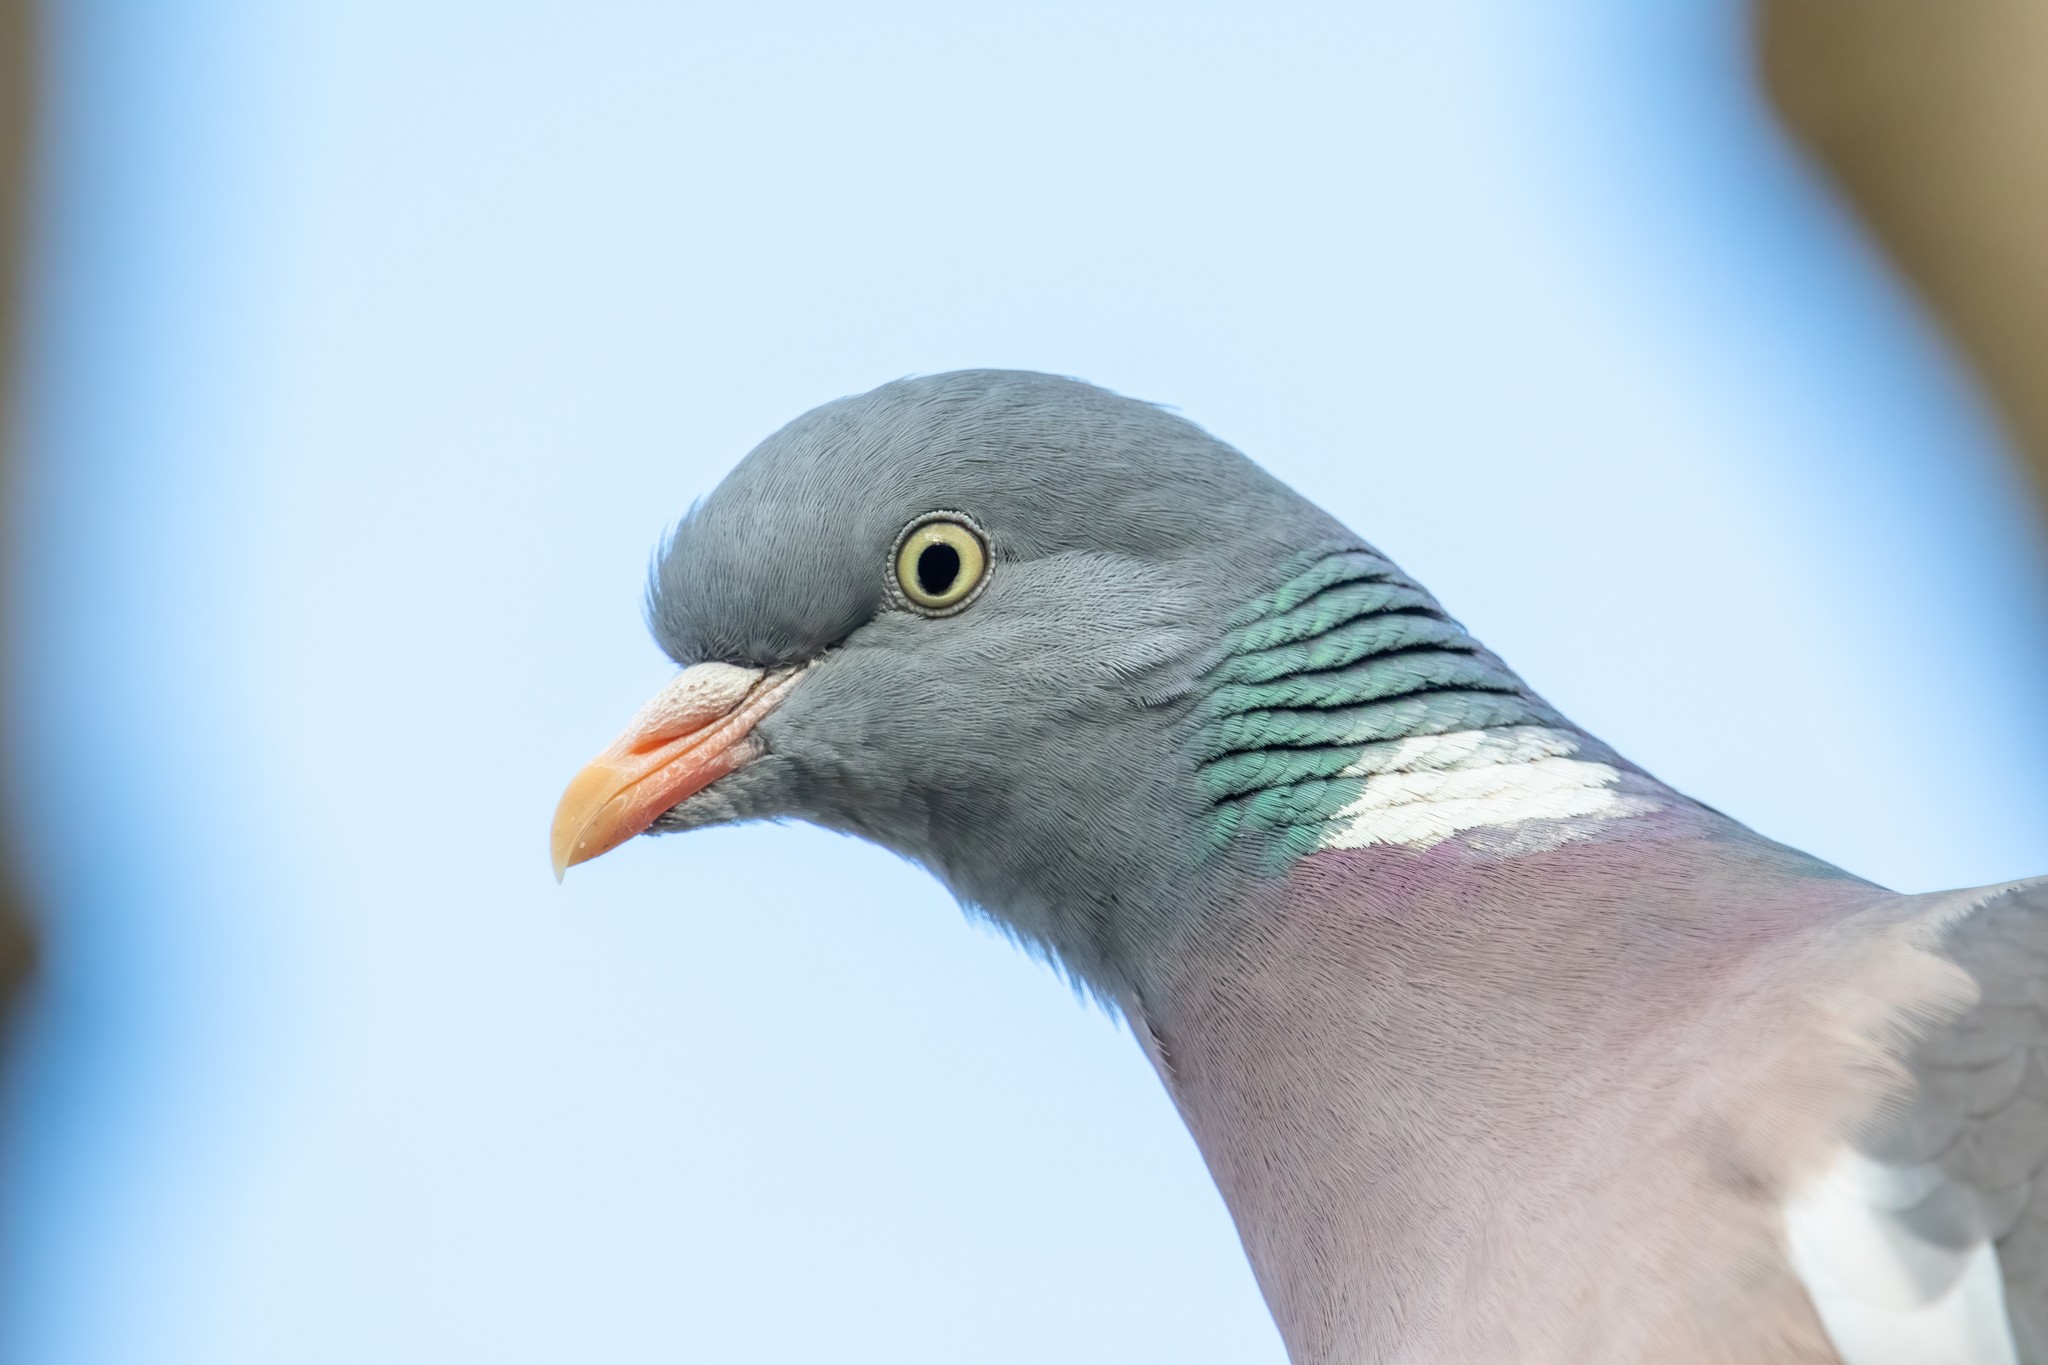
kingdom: Animalia
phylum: Chordata
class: Aves
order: Columbiformes
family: Columbidae
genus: Columba
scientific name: Columba palumbus
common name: Common wood pigeon
